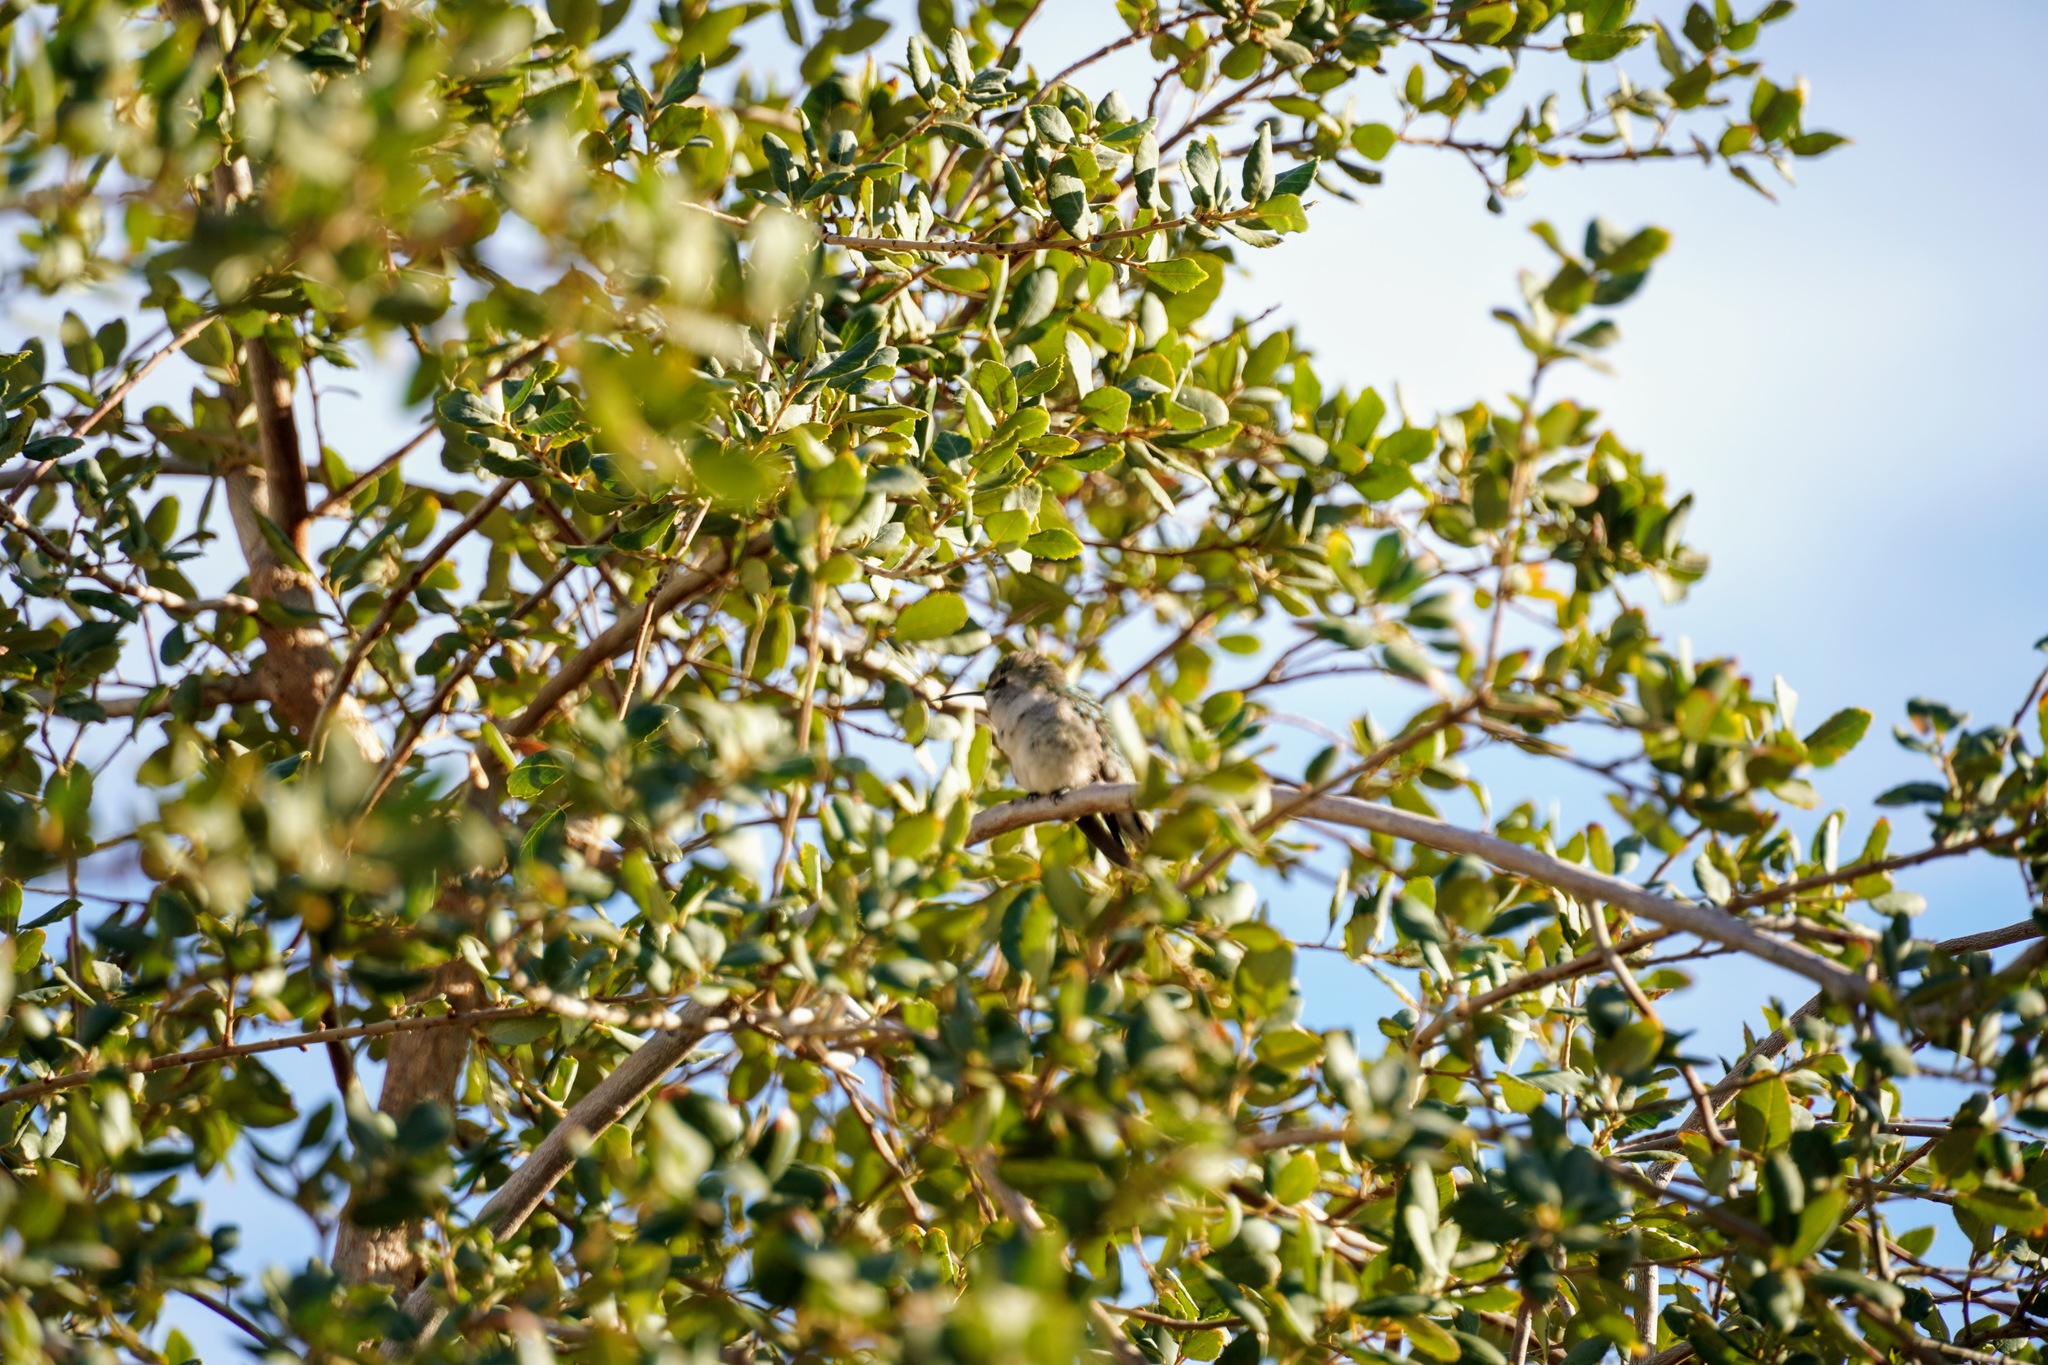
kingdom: Animalia
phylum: Chordata
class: Aves
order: Apodiformes
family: Trochilidae
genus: Calypte
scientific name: Calypte costae
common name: Costa's hummingbird
